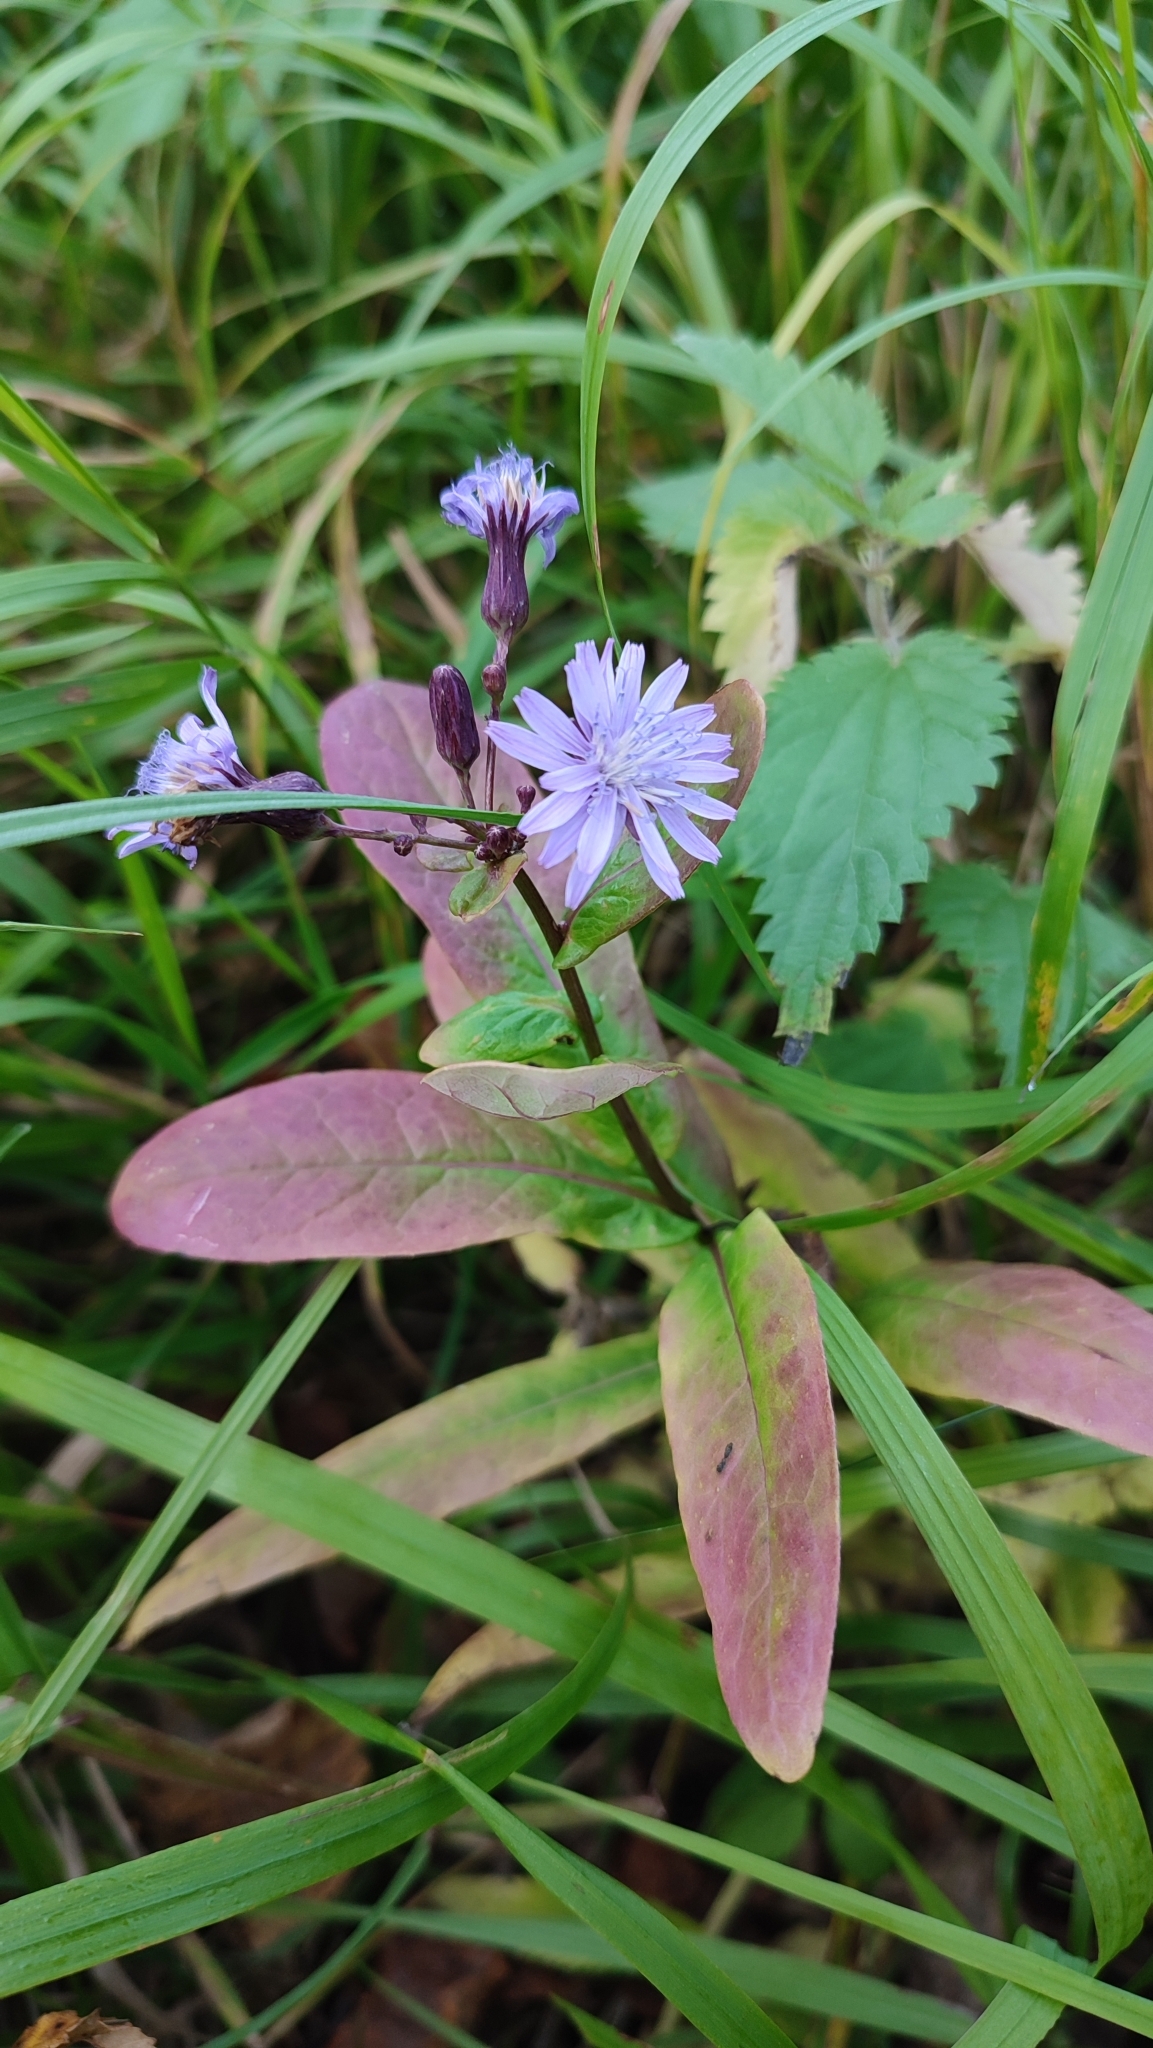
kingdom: Plantae
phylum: Tracheophyta
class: Magnoliopsida
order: Asterales
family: Asteraceae
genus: Lactuca
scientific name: Lactuca sibirica
